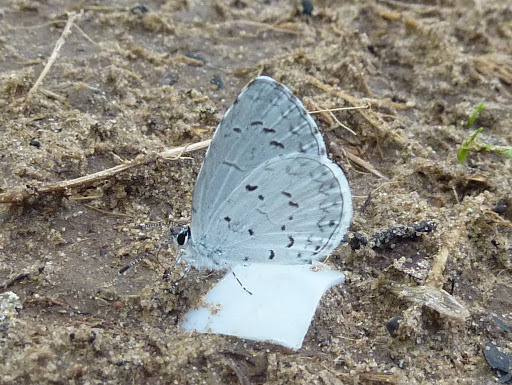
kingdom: Animalia
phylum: Arthropoda
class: Insecta
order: Lepidoptera
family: Lycaenidae
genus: Cyaniris
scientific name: Cyaniris neglecta
